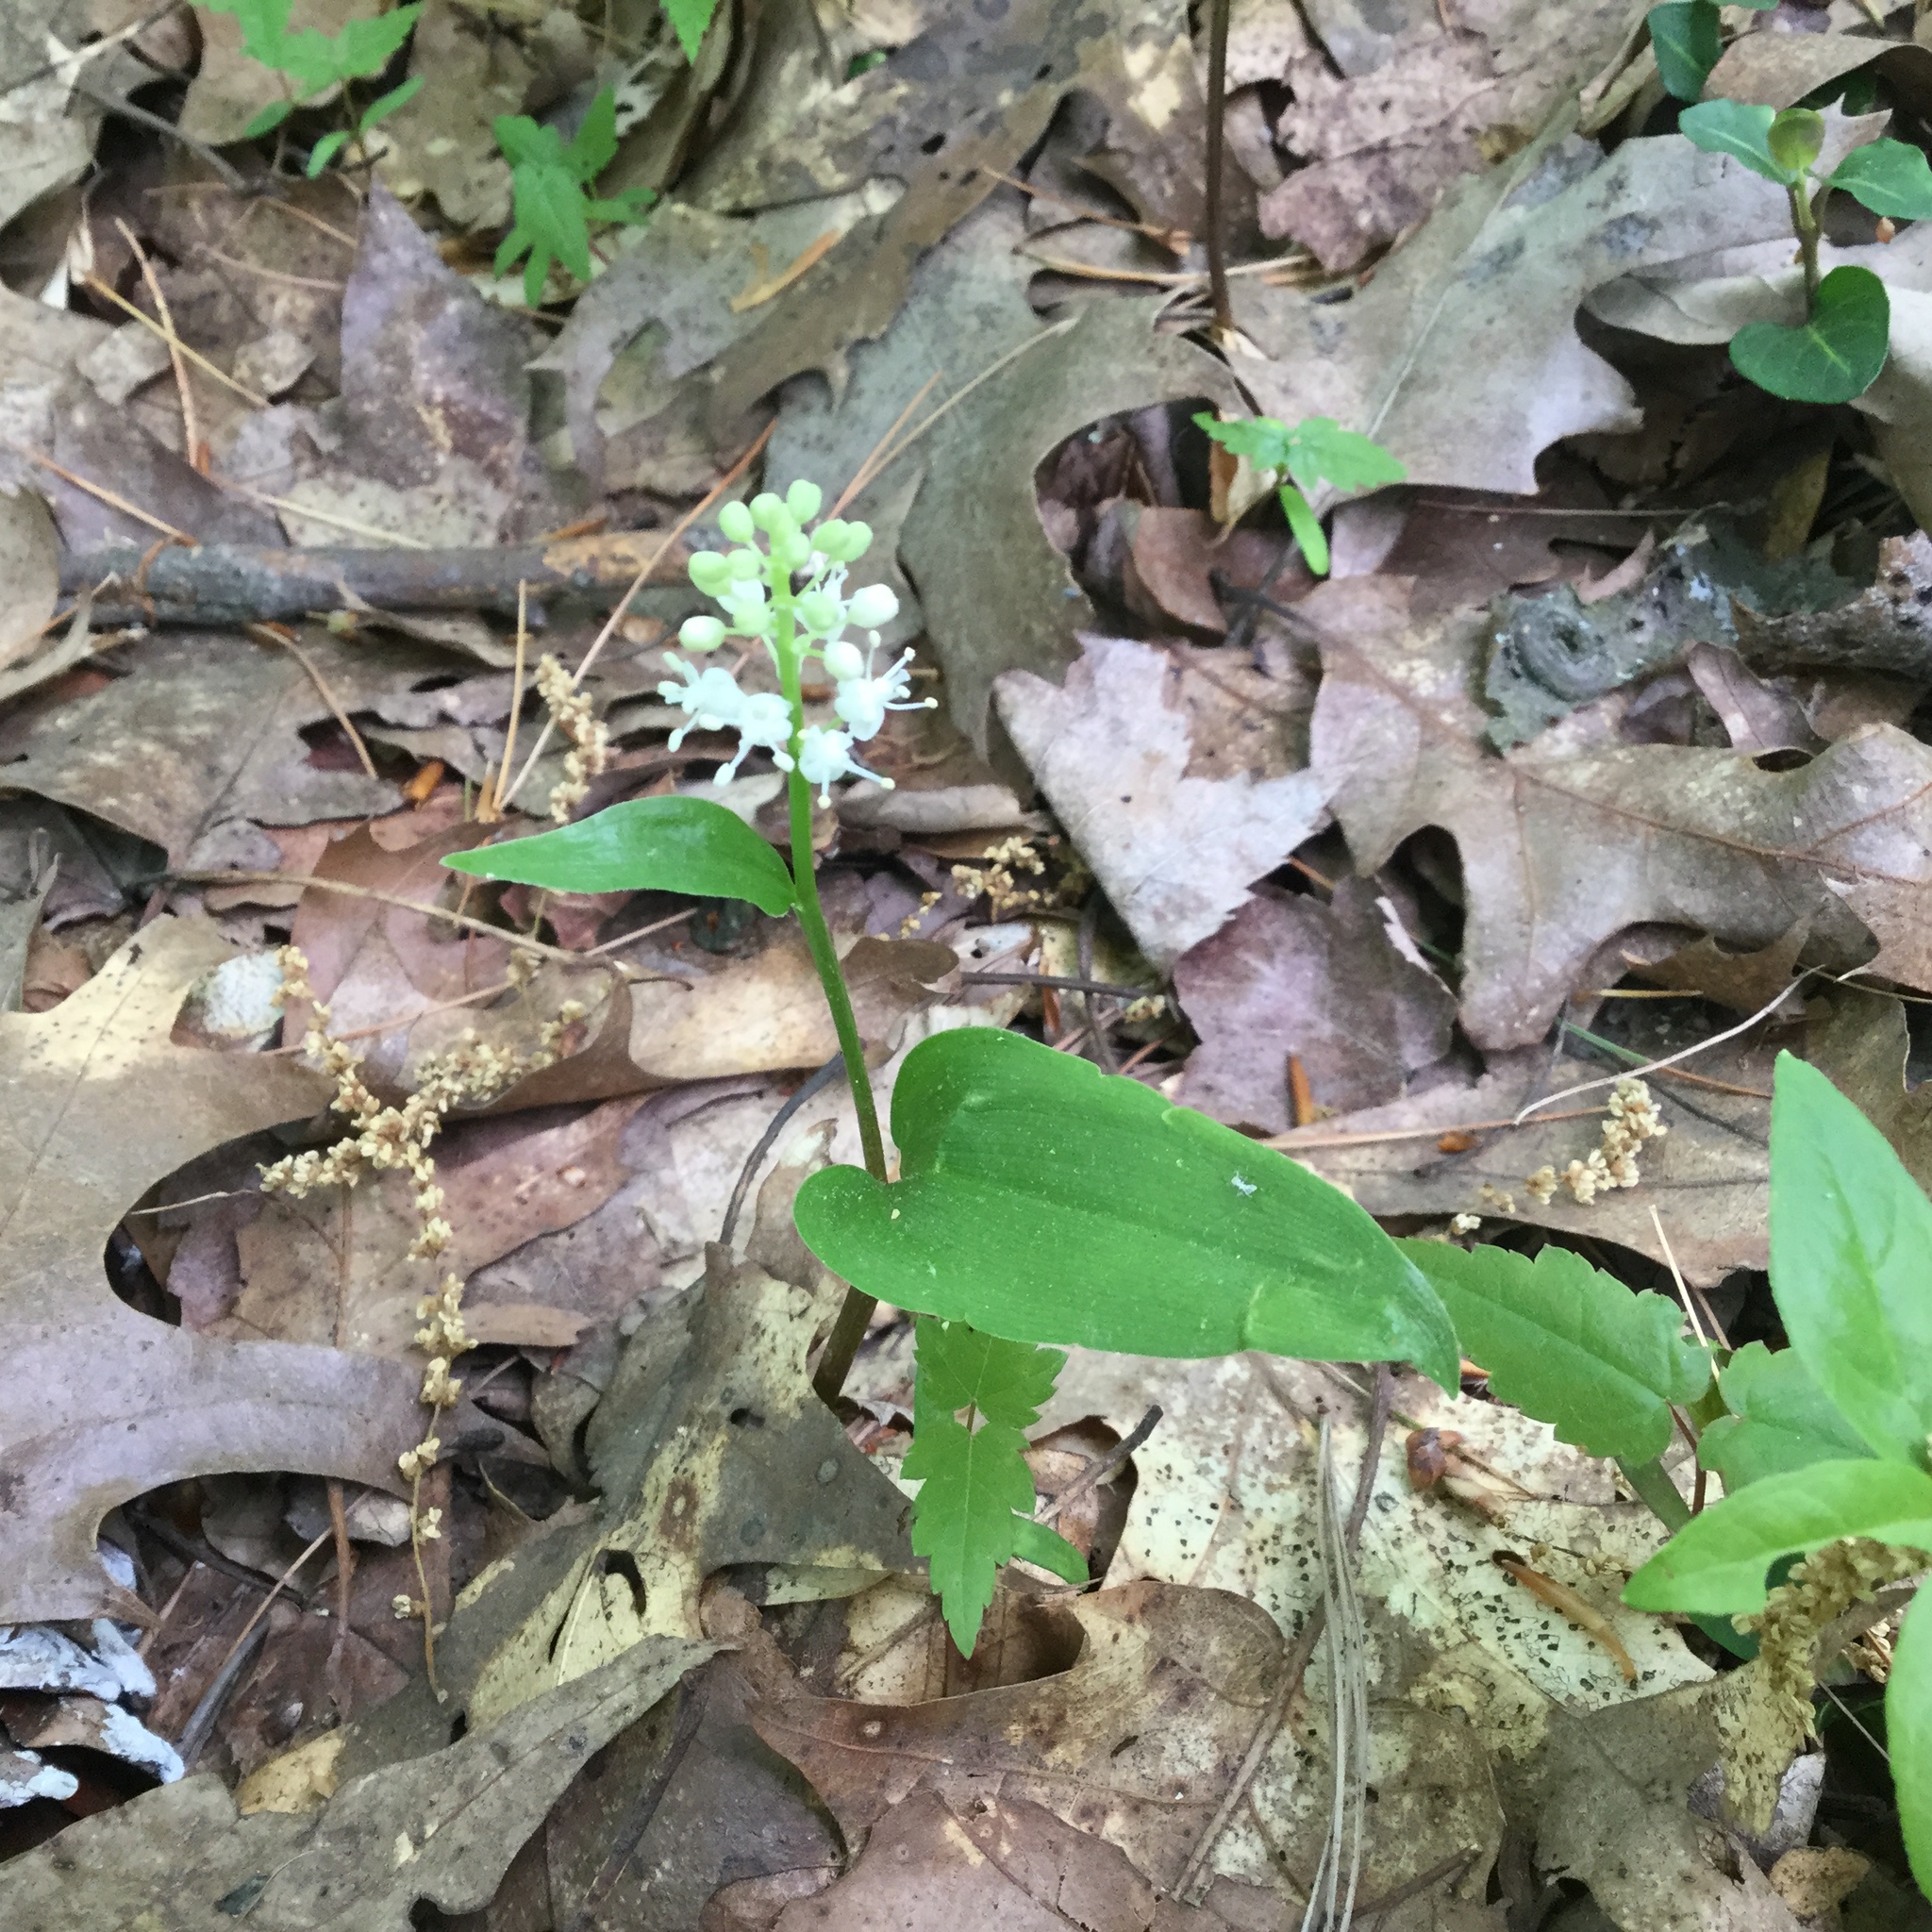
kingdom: Plantae
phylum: Tracheophyta
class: Liliopsida
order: Asparagales
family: Asparagaceae
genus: Maianthemum
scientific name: Maianthemum canadense
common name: False lily-of-the-valley
